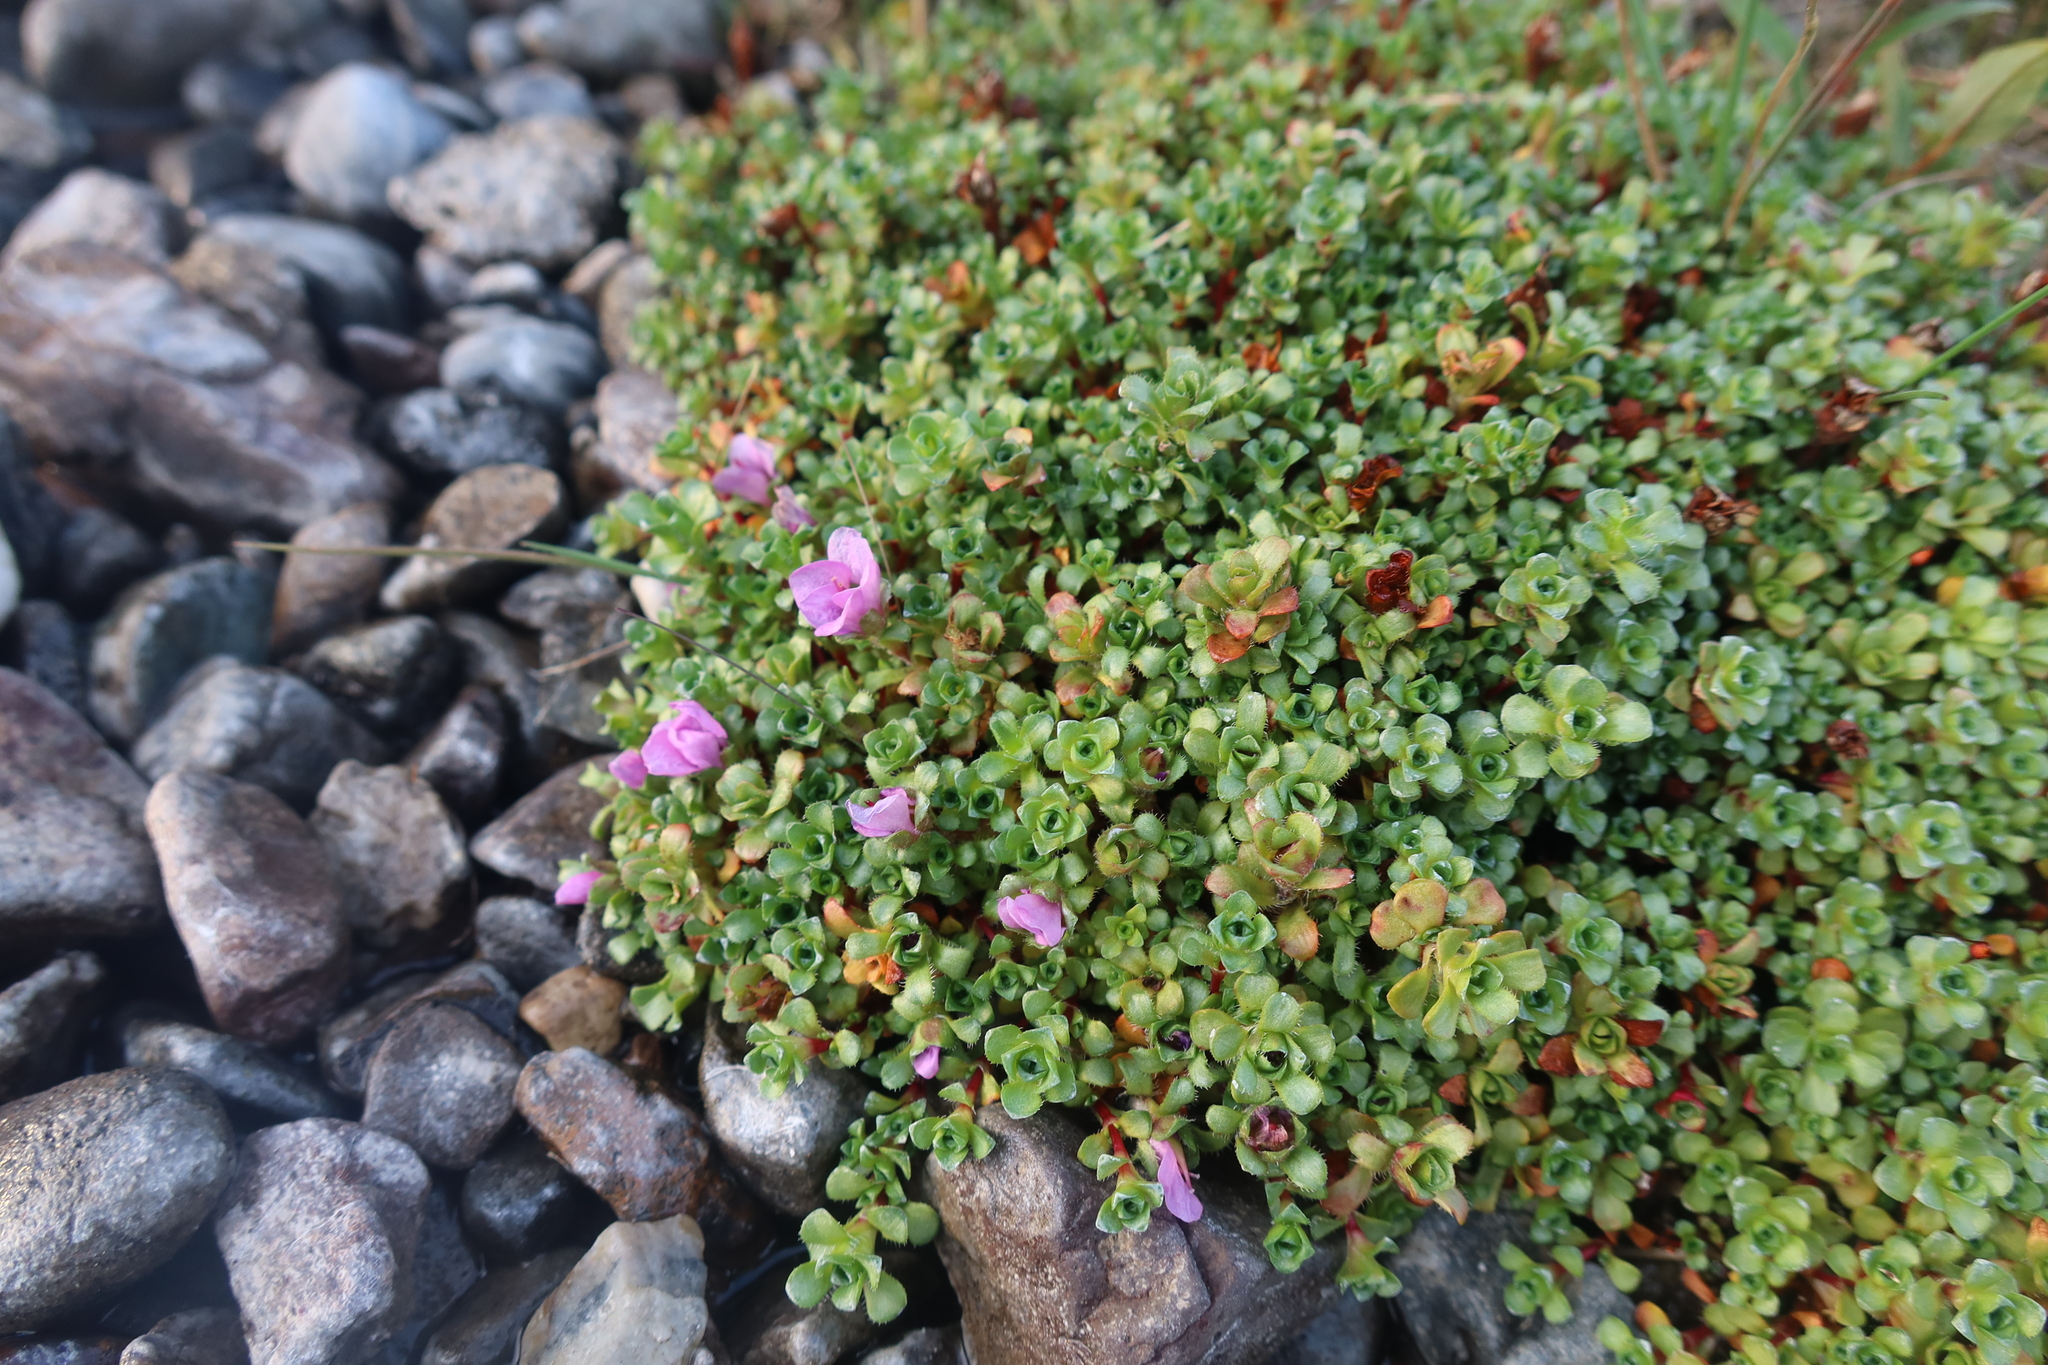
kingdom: Plantae
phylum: Tracheophyta
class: Magnoliopsida
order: Saxifragales
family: Saxifragaceae
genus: Saxifraga
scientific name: Saxifraga oppositifolia
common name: Purple saxifrage
